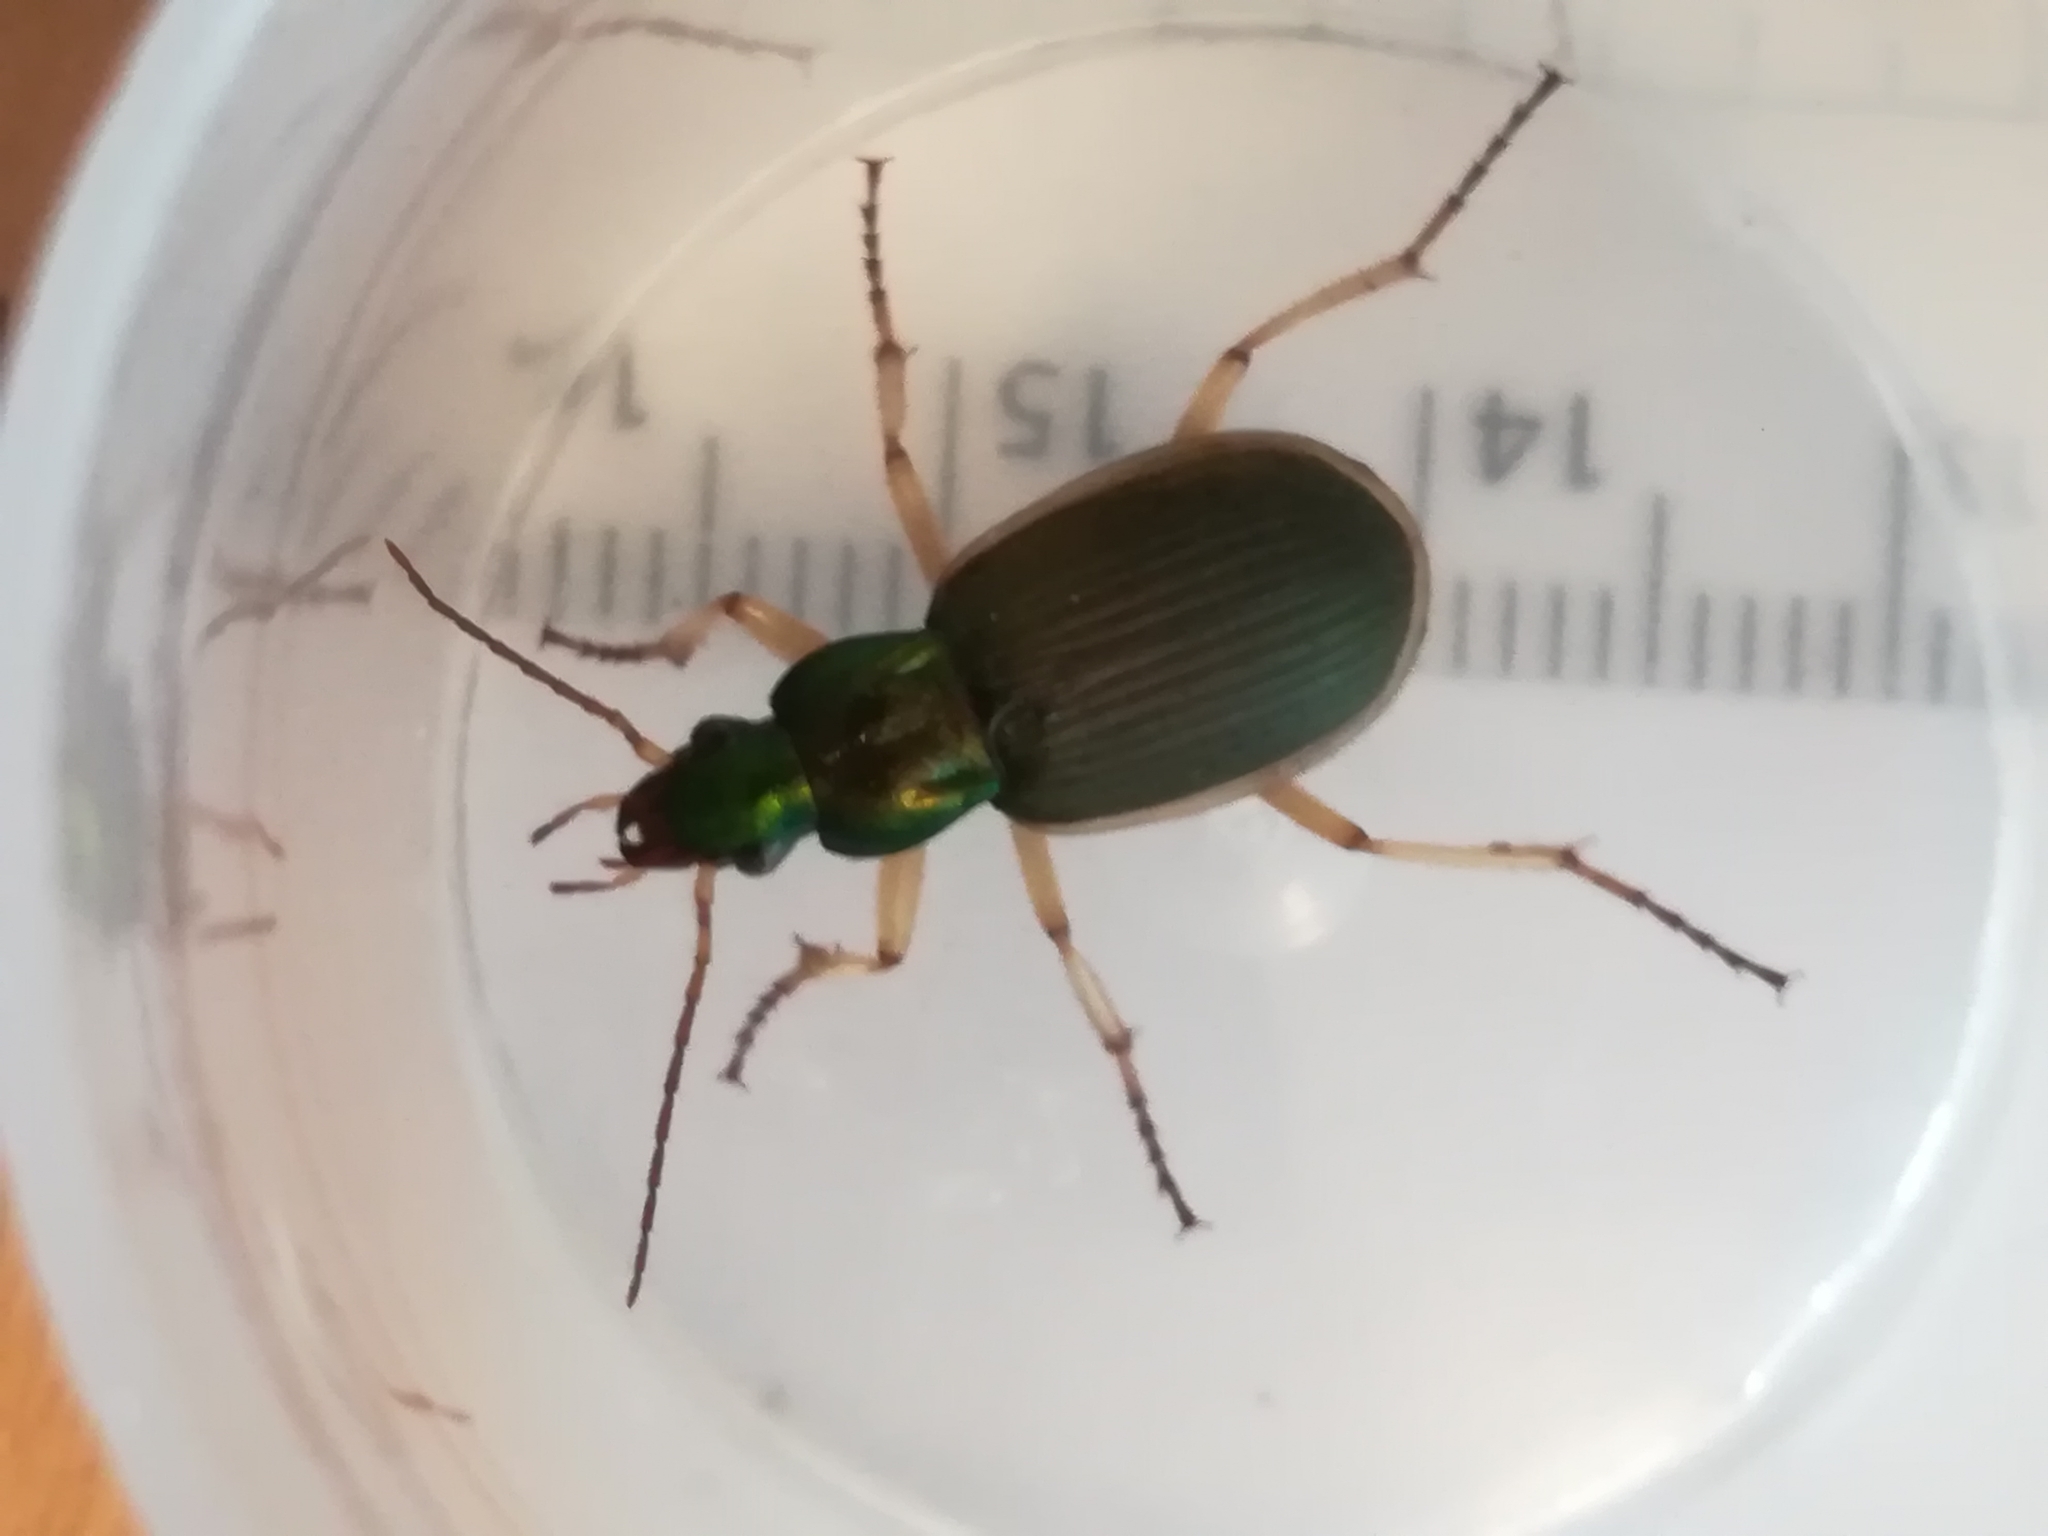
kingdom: Animalia
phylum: Arthropoda
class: Insecta
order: Coleoptera
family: Carabidae
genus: Chlaenius
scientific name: Chlaenius festivus
